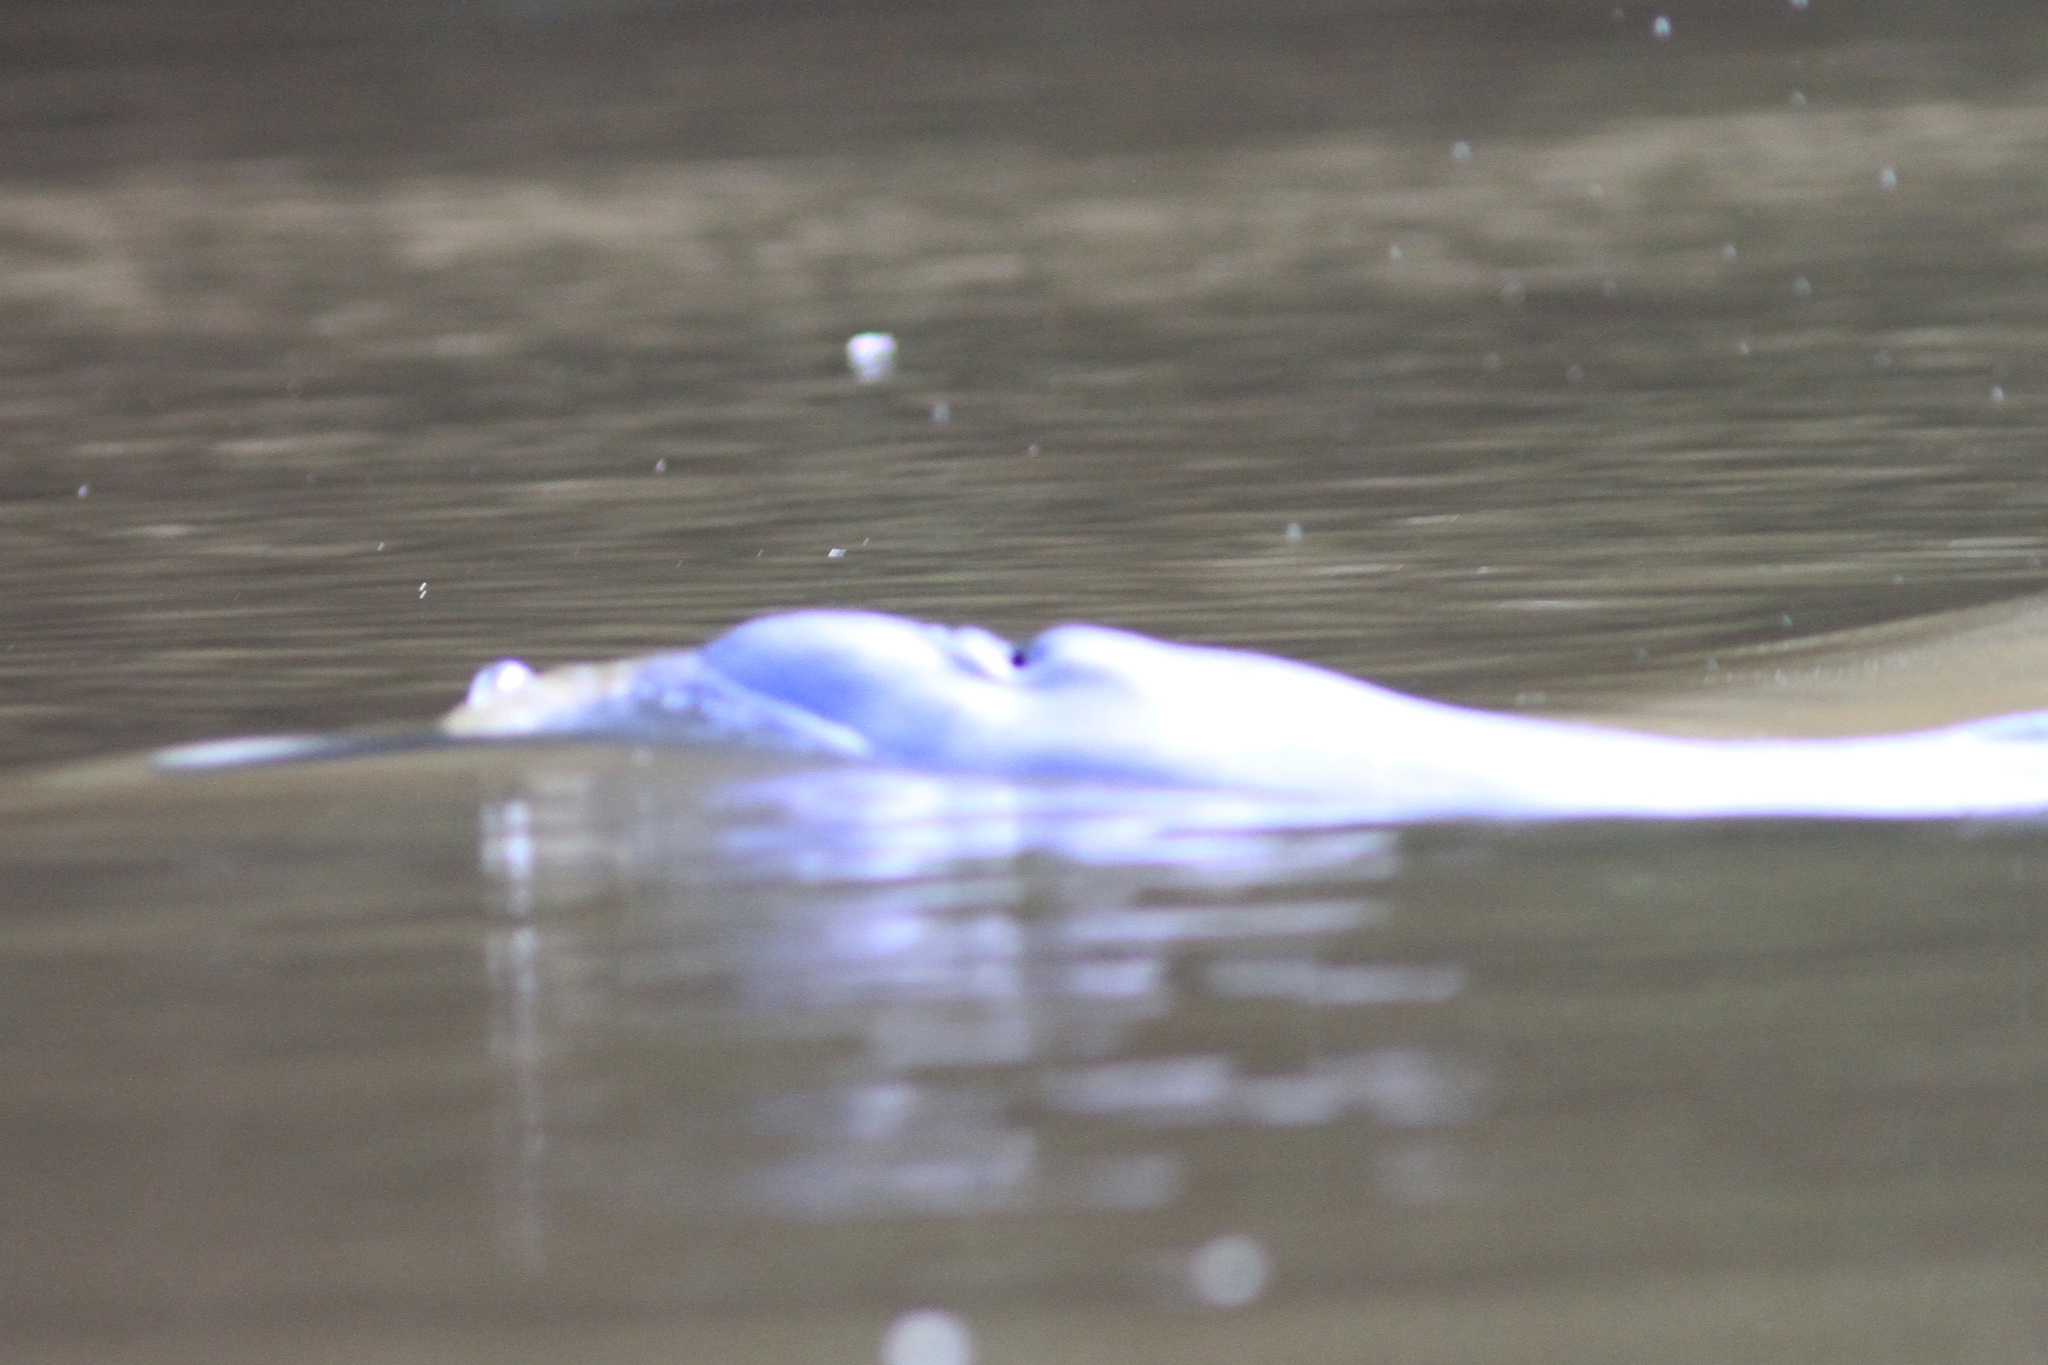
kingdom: Animalia
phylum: Chordata
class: Mammalia
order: Cetacea
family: Iniidae
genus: Inia
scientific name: Inia geoffrensis
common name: Amazon river dolphin
